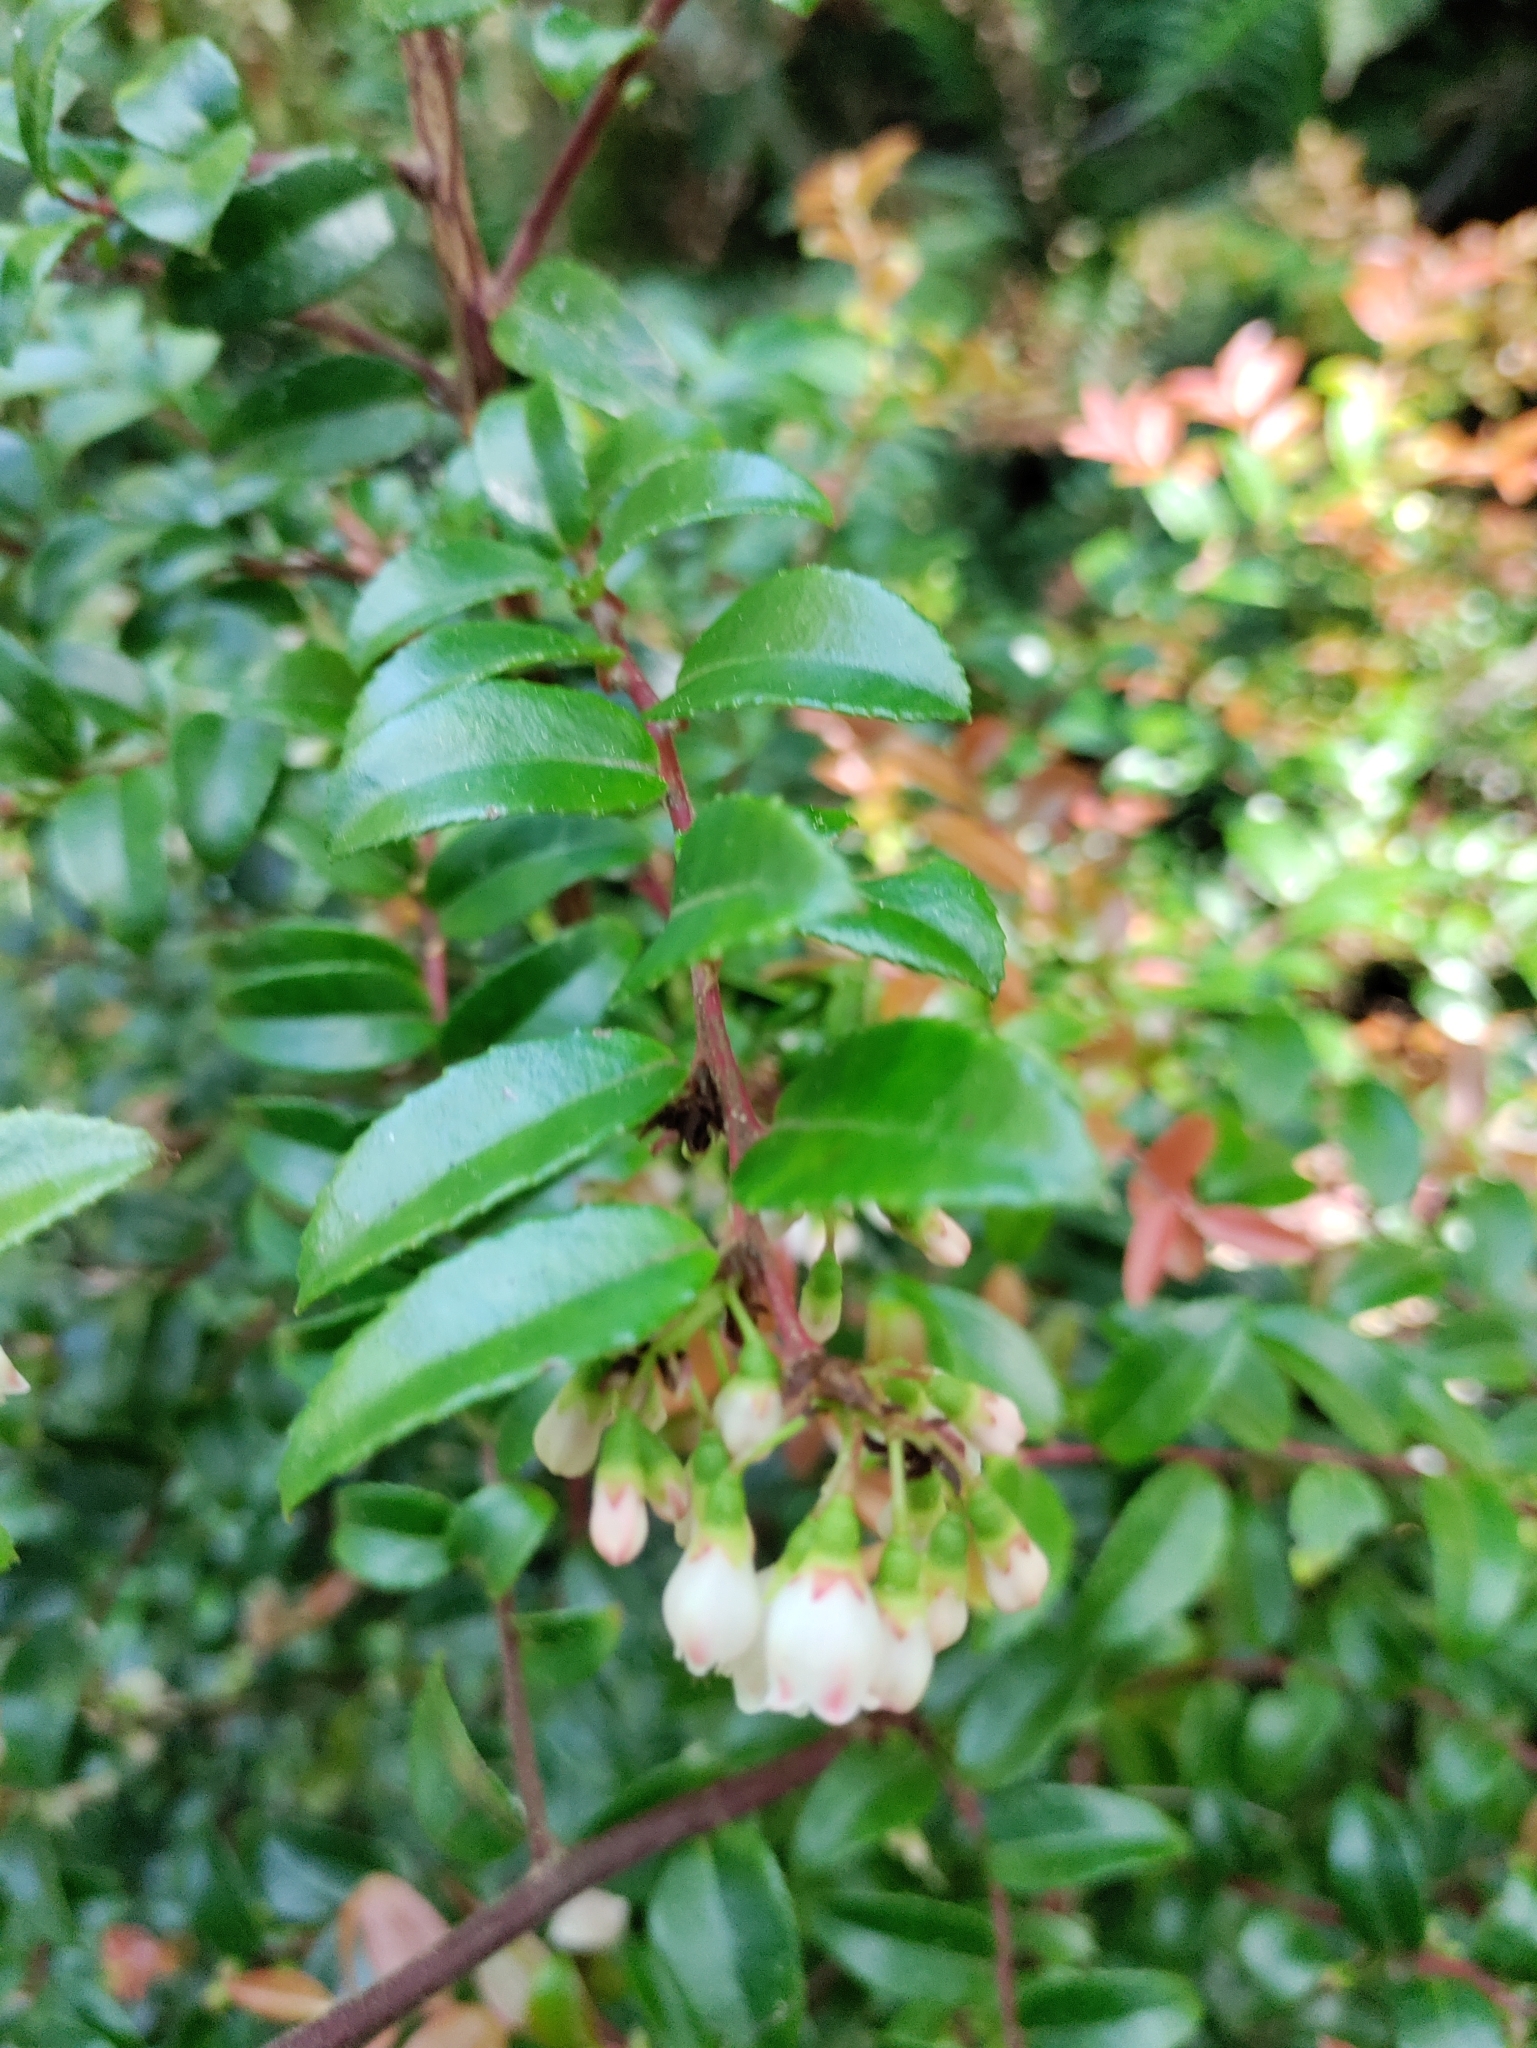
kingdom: Plantae
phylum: Tracheophyta
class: Magnoliopsida
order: Ericales
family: Ericaceae
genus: Vaccinium
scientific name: Vaccinium ovatum
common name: California-huckleberry
